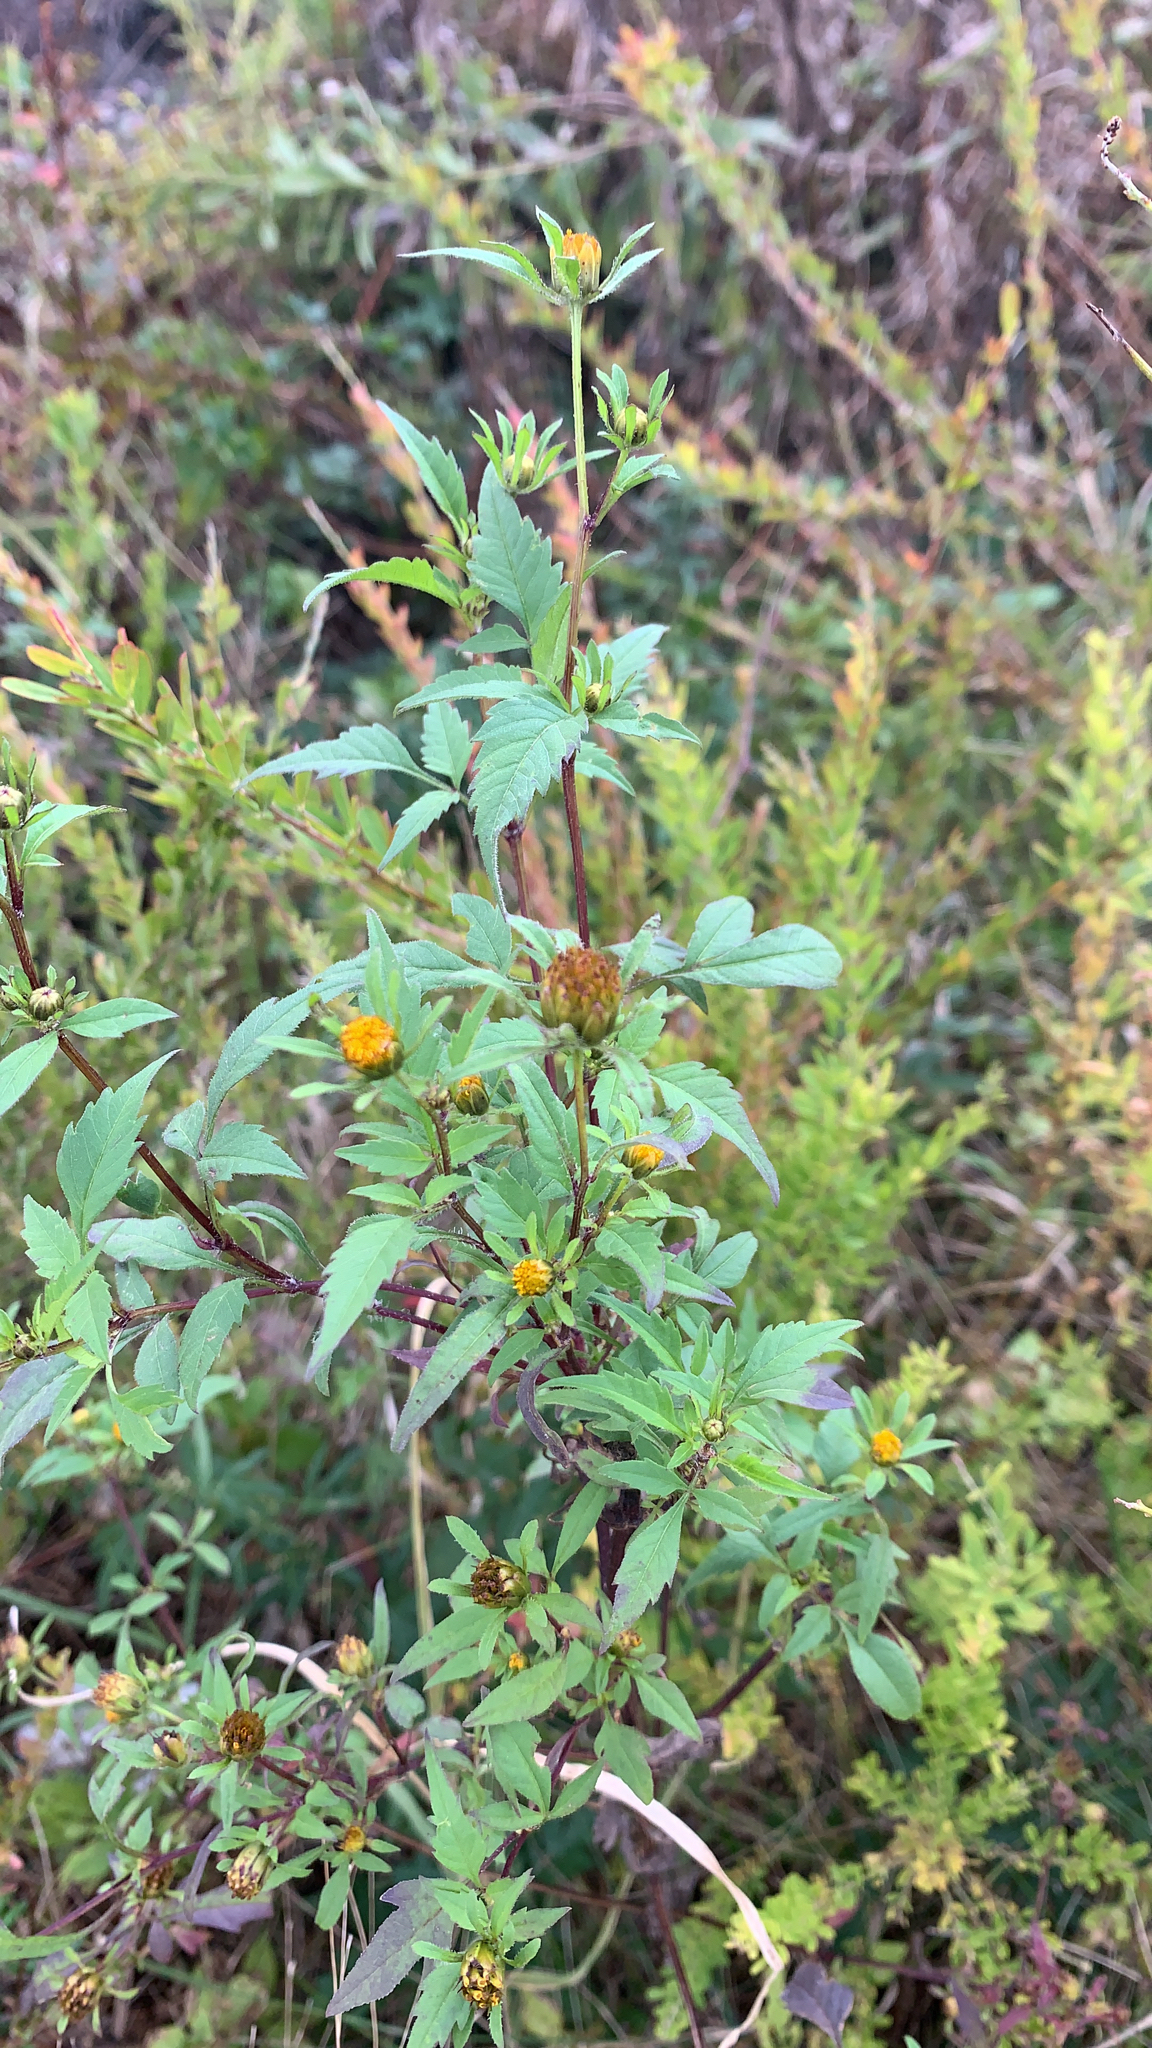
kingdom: Plantae
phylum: Tracheophyta
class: Magnoliopsida
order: Asterales
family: Asteraceae
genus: Bidens
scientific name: Bidens frondosa
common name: Beggarticks
